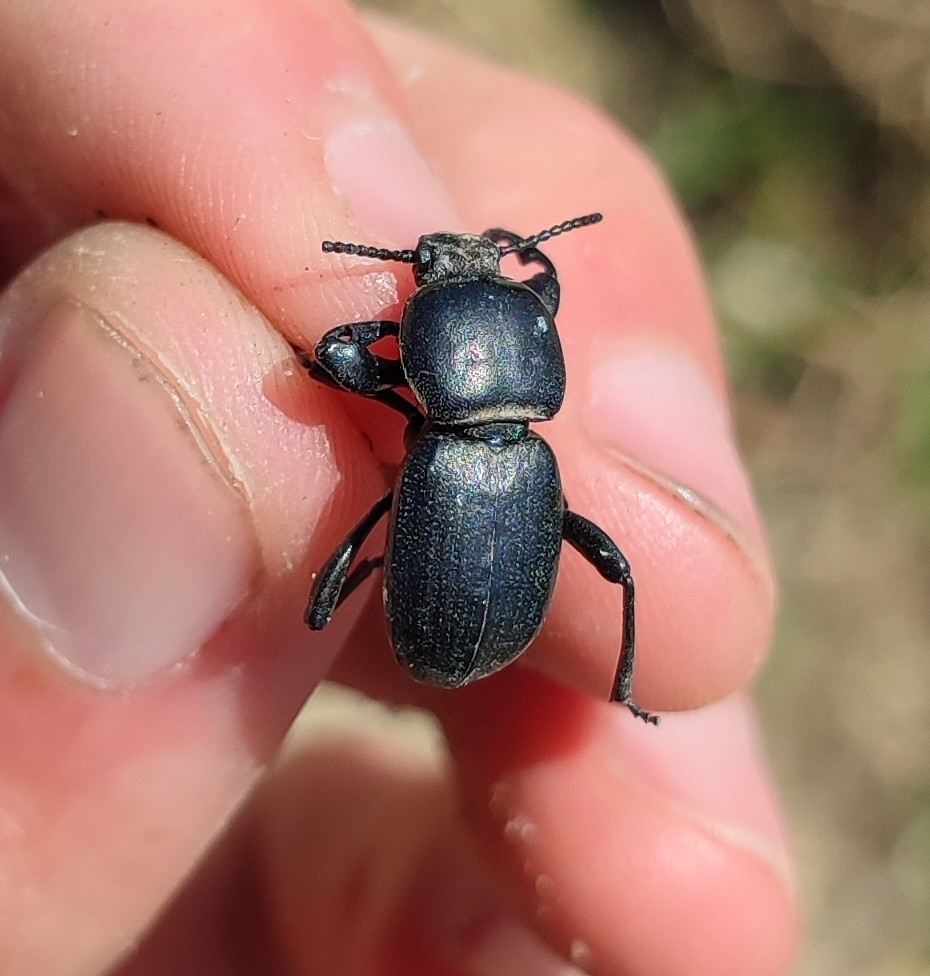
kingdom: Animalia
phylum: Arthropoda
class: Insecta
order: Coleoptera
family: Tenebrionidae
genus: Scaurus
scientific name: Scaurus atratus
